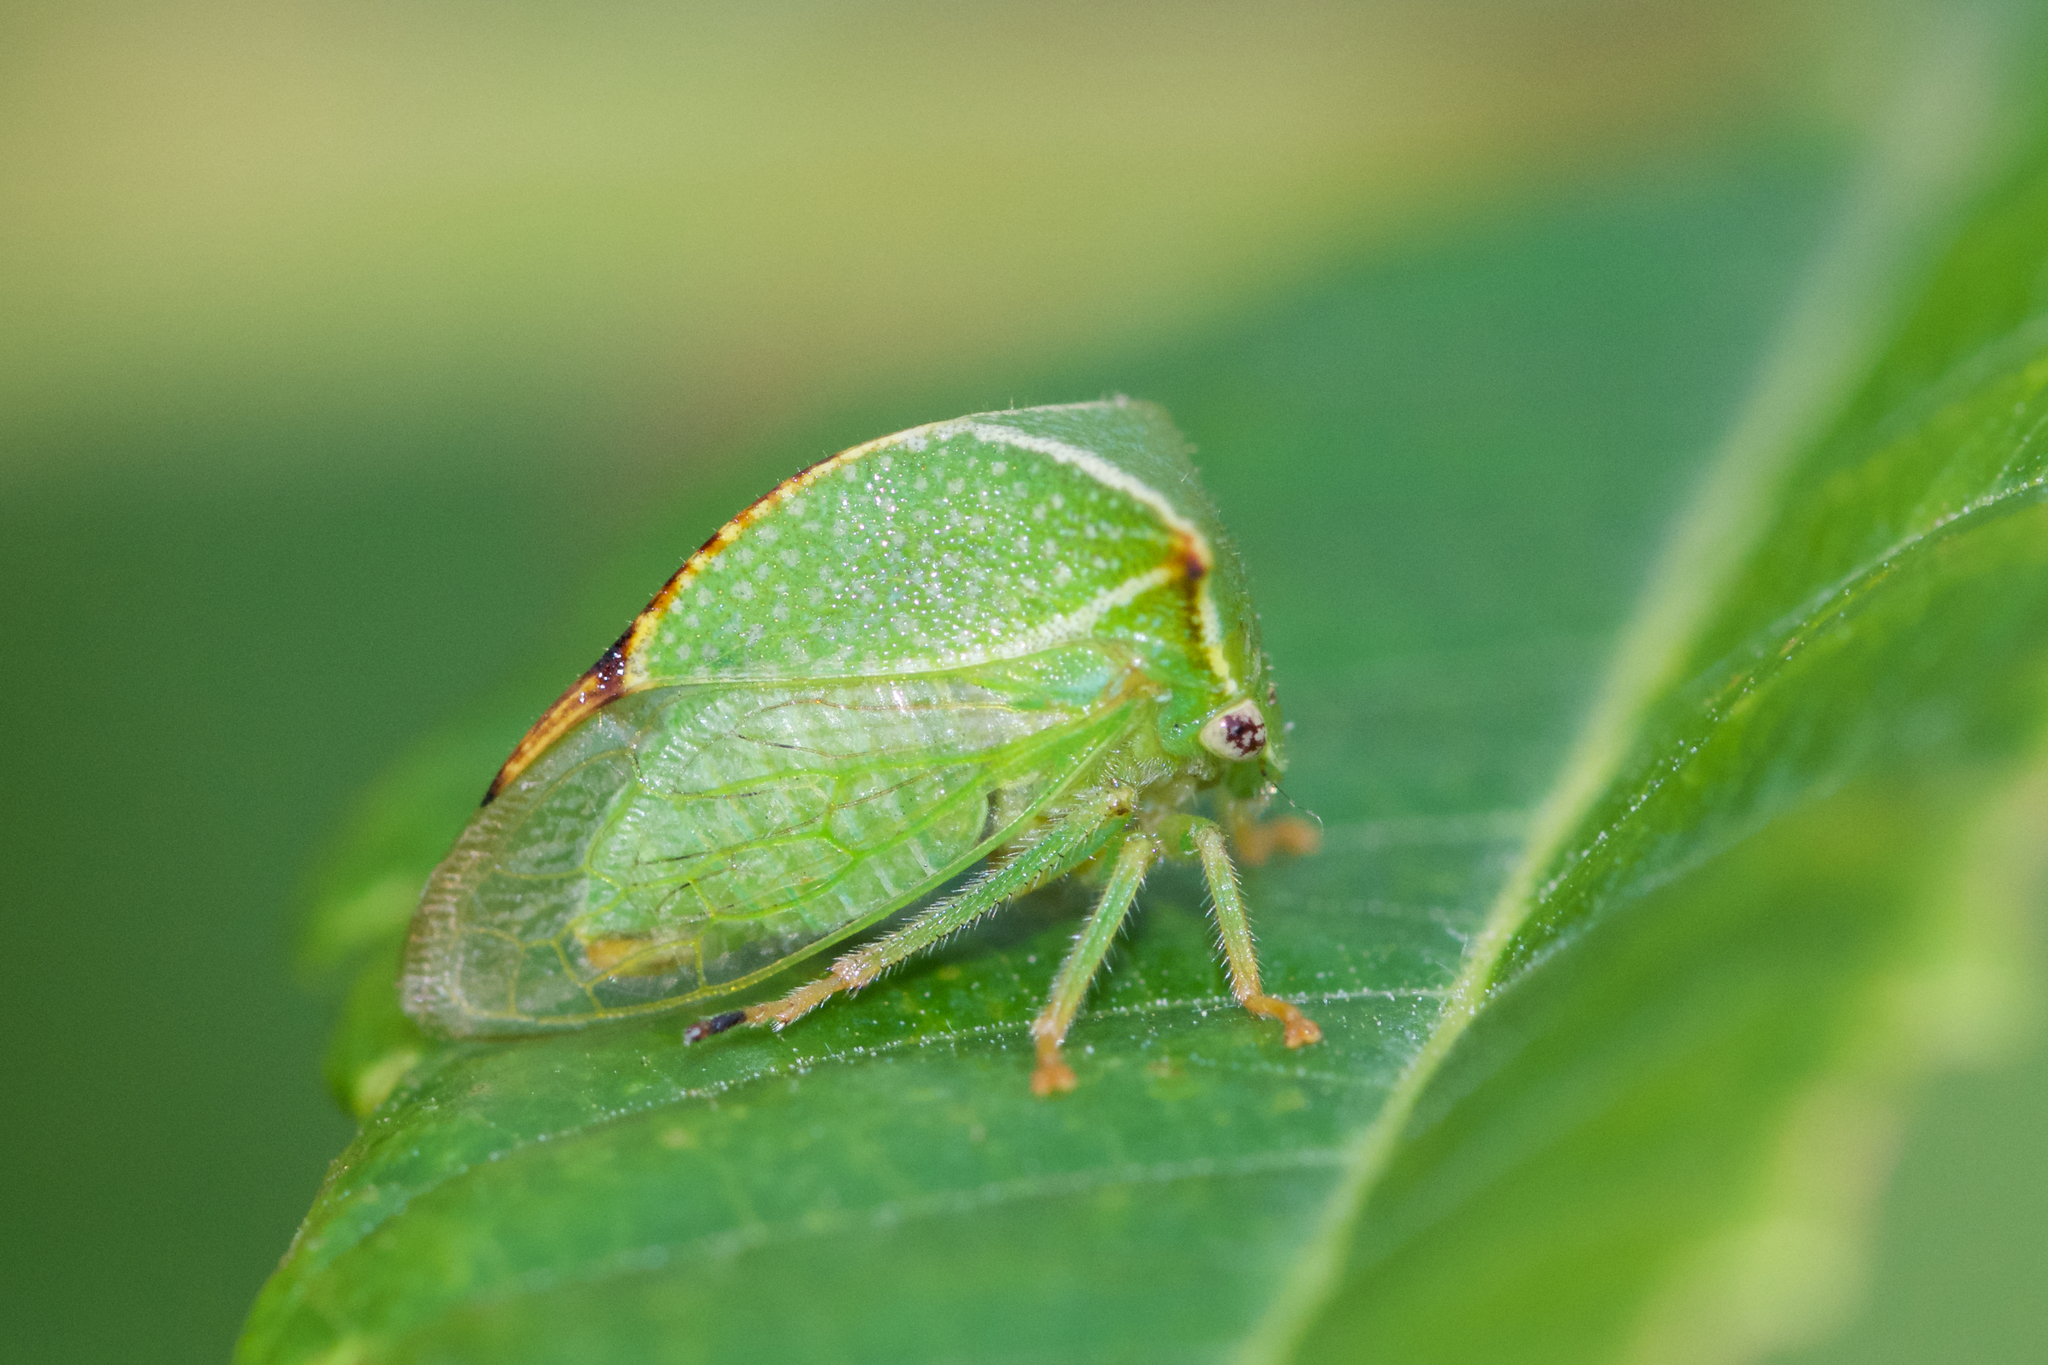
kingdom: Animalia
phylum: Arthropoda
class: Insecta
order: Hemiptera
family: Membracidae
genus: Stictocephala
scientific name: Stictocephala bisonia
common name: American buffalo treehopper
